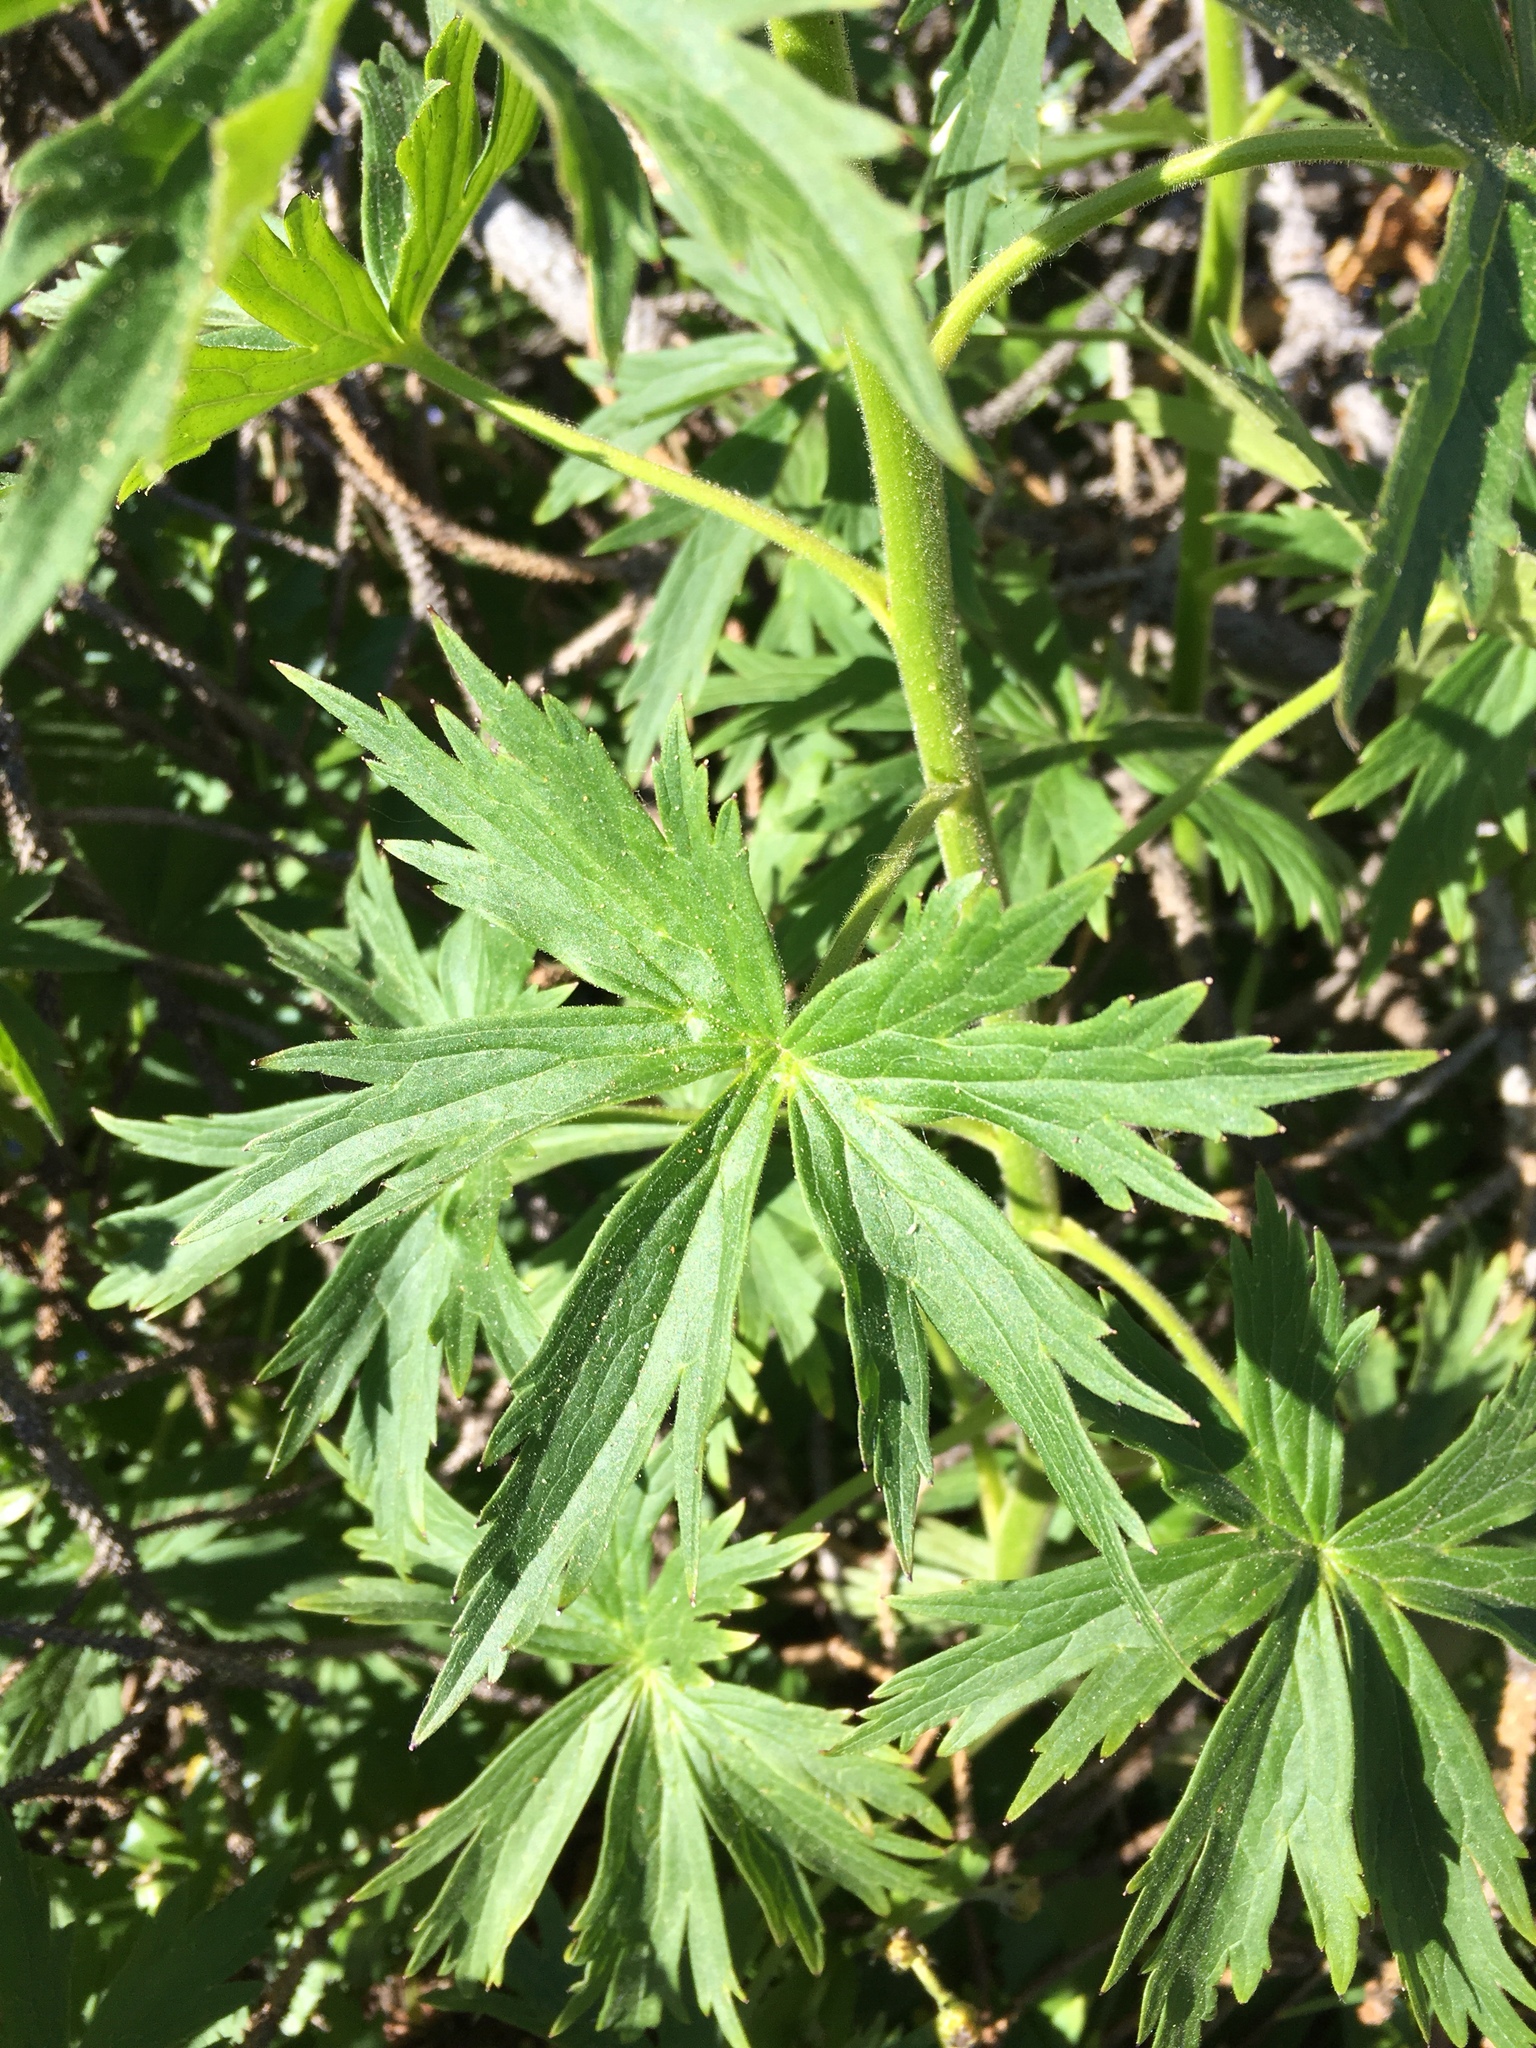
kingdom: Plantae
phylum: Tracheophyta
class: Magnoliopsida
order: Ranunculales
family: Ranunculaceae
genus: Delphinium
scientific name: Delphinium barbeyi
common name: Subalpine larkspur
